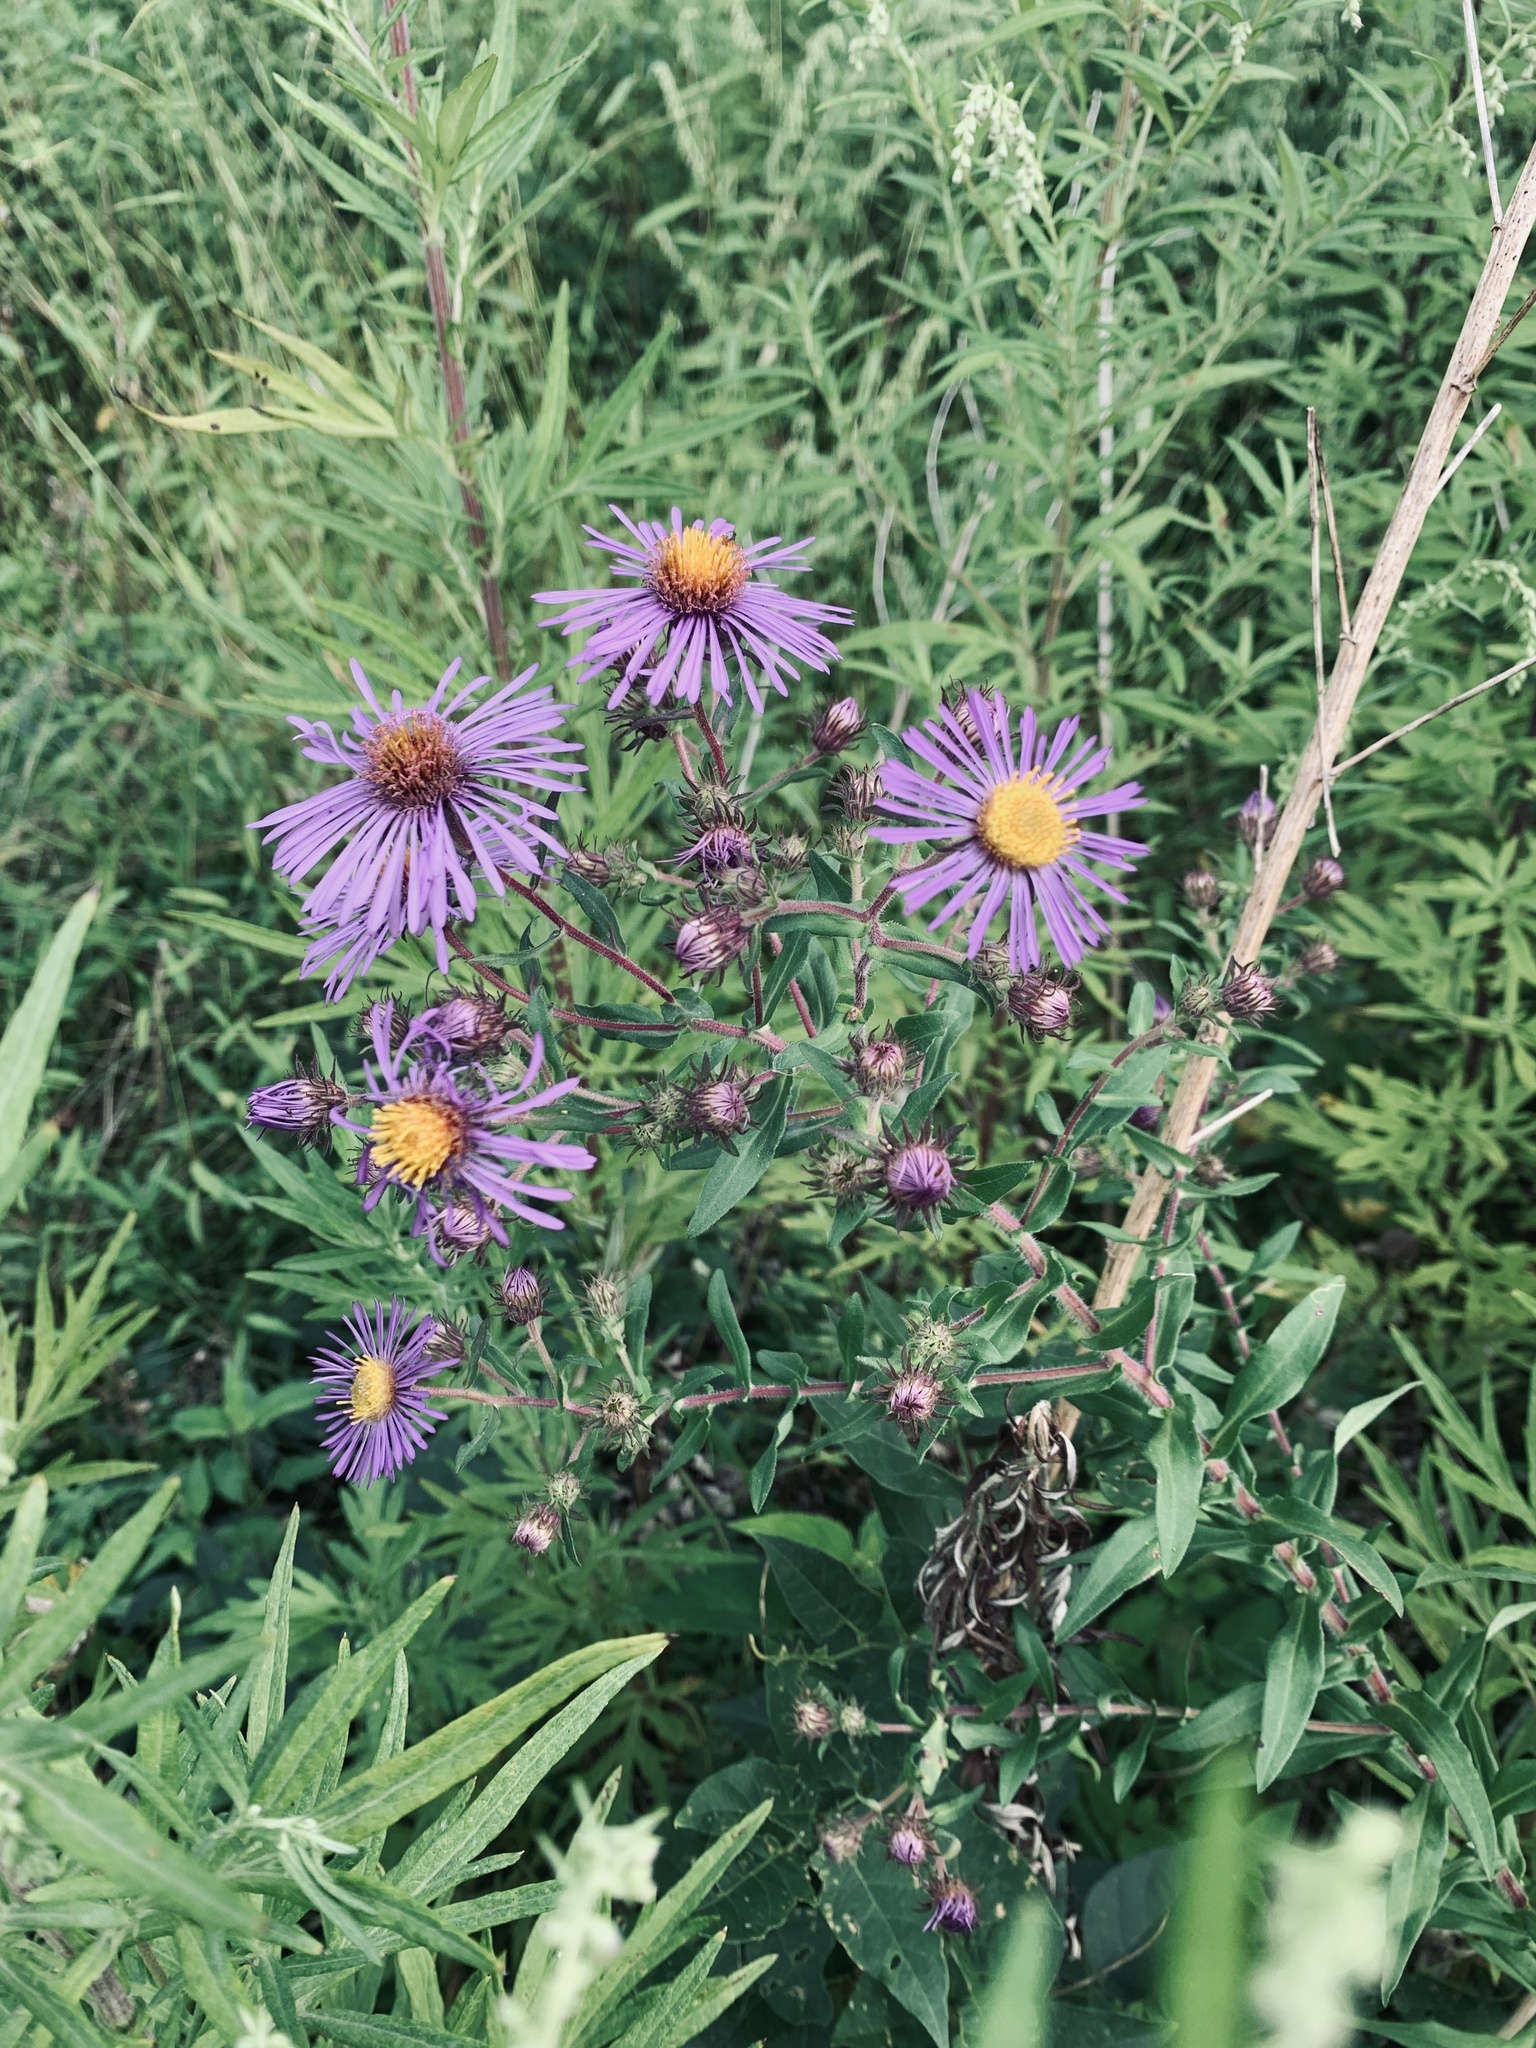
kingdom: Plantae
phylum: Tracheophyta
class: Magnoliopsida
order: Asterales
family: Asteraceae
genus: Symphyotrichum
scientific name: Symphyotrichum novae-angliae
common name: Michaelmas daisy
